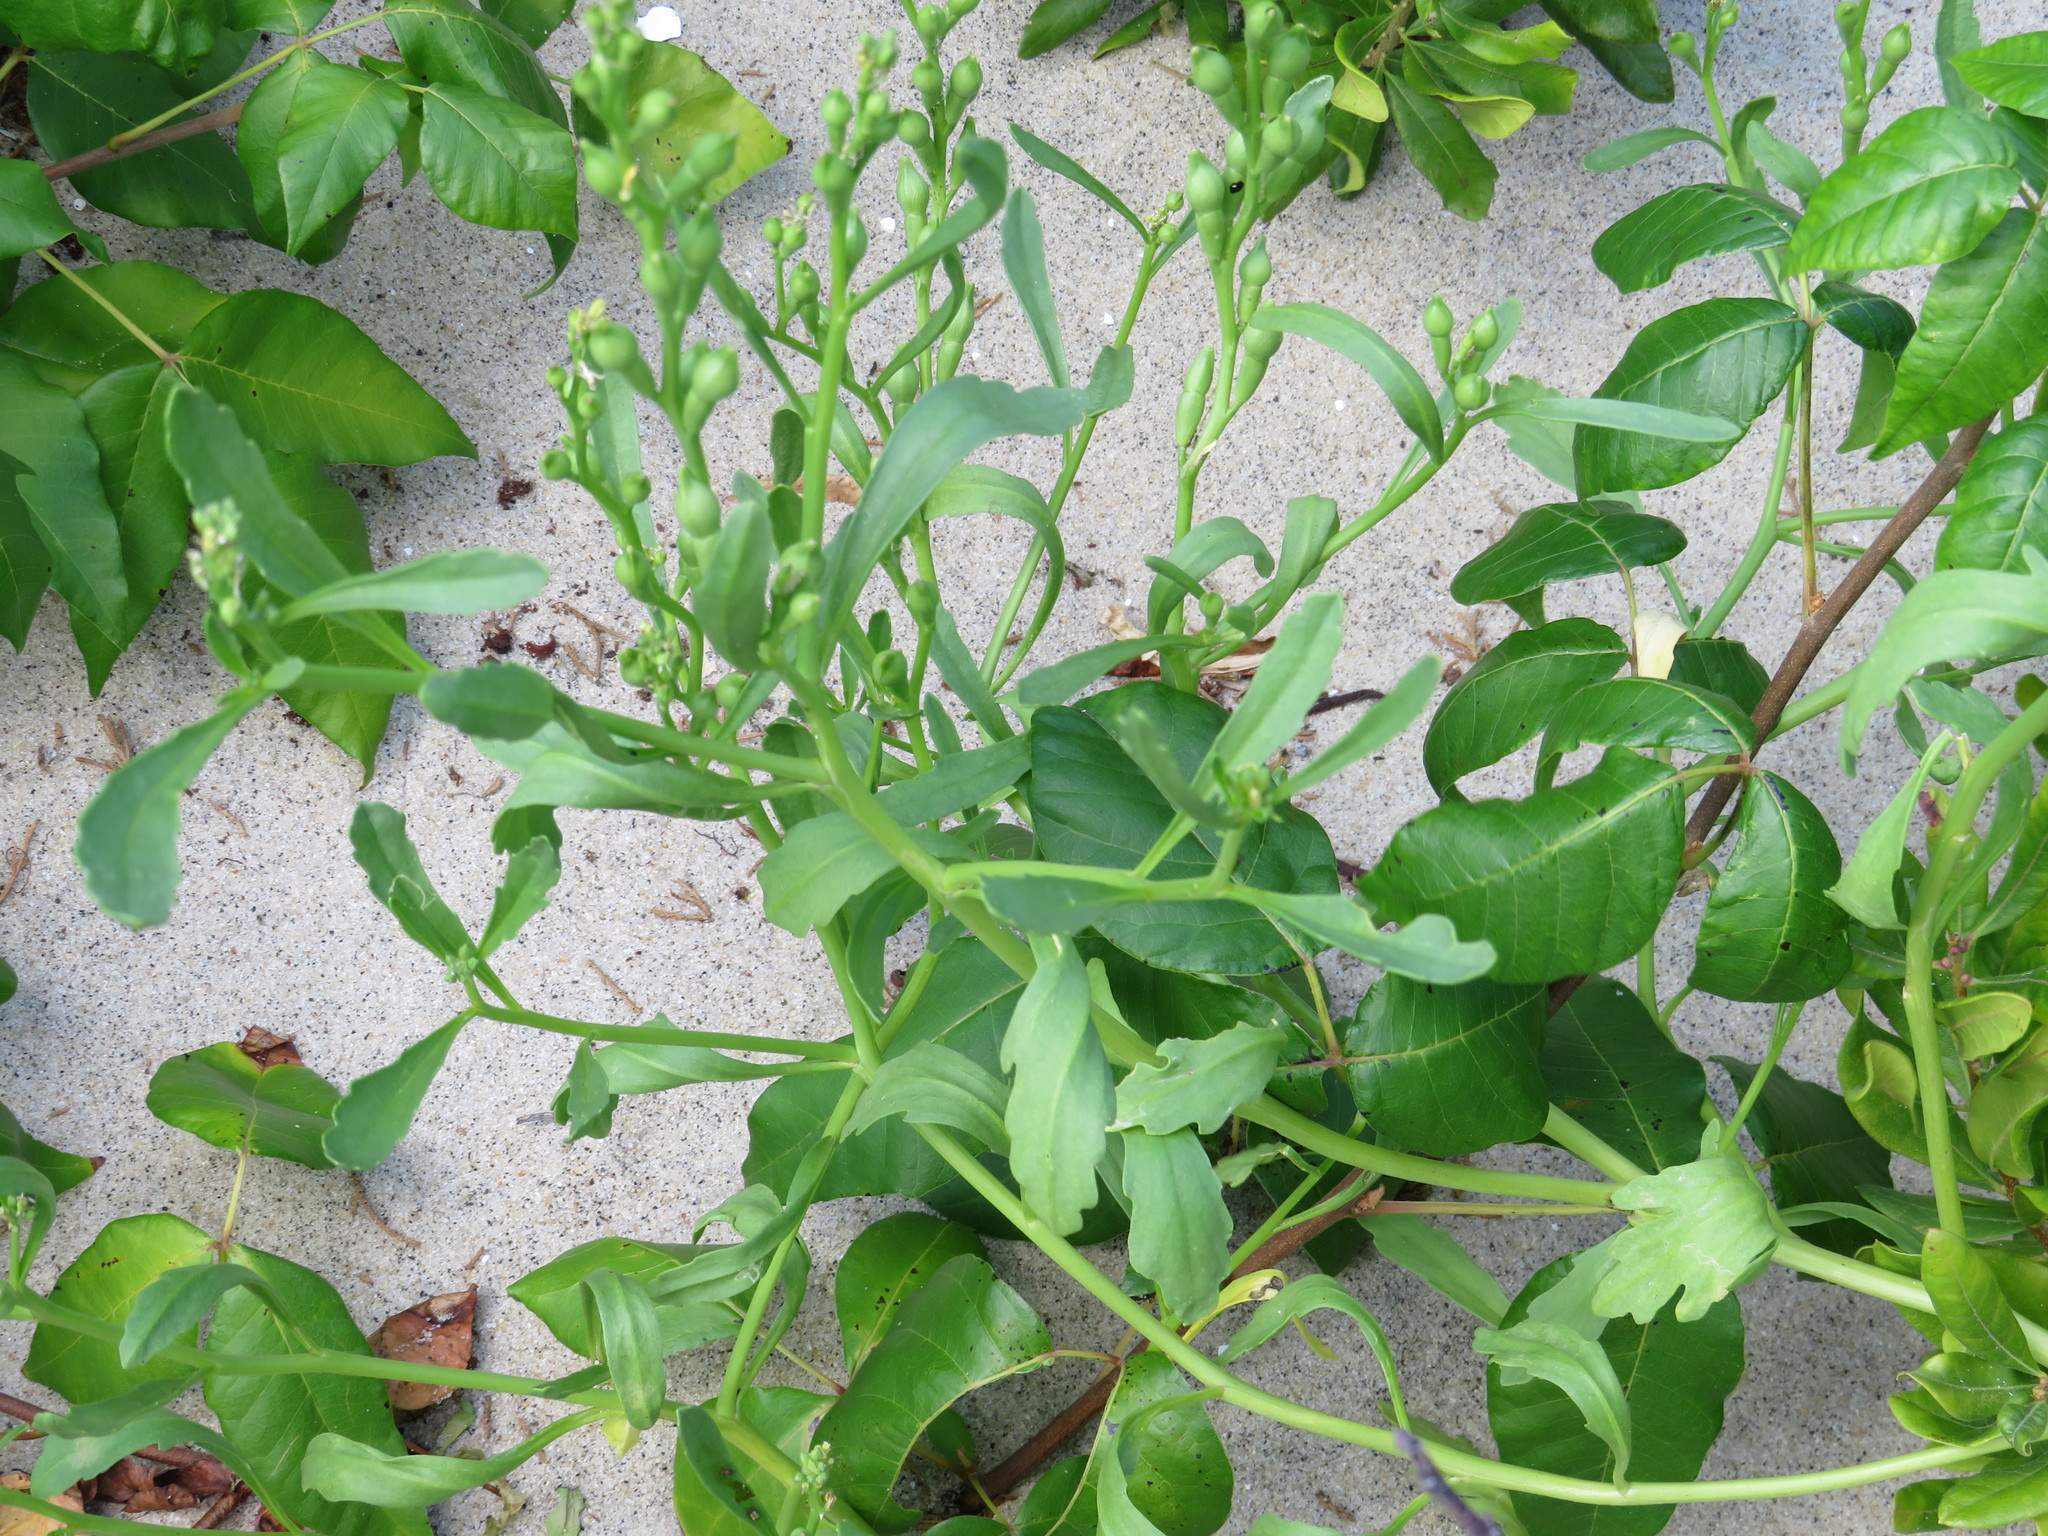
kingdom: Plantae
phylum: Tracheophyta
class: Magnoliopsida
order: Brassicales
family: Brassicaceae
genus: Cakile
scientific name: Cakile edentula
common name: American sea rocket
